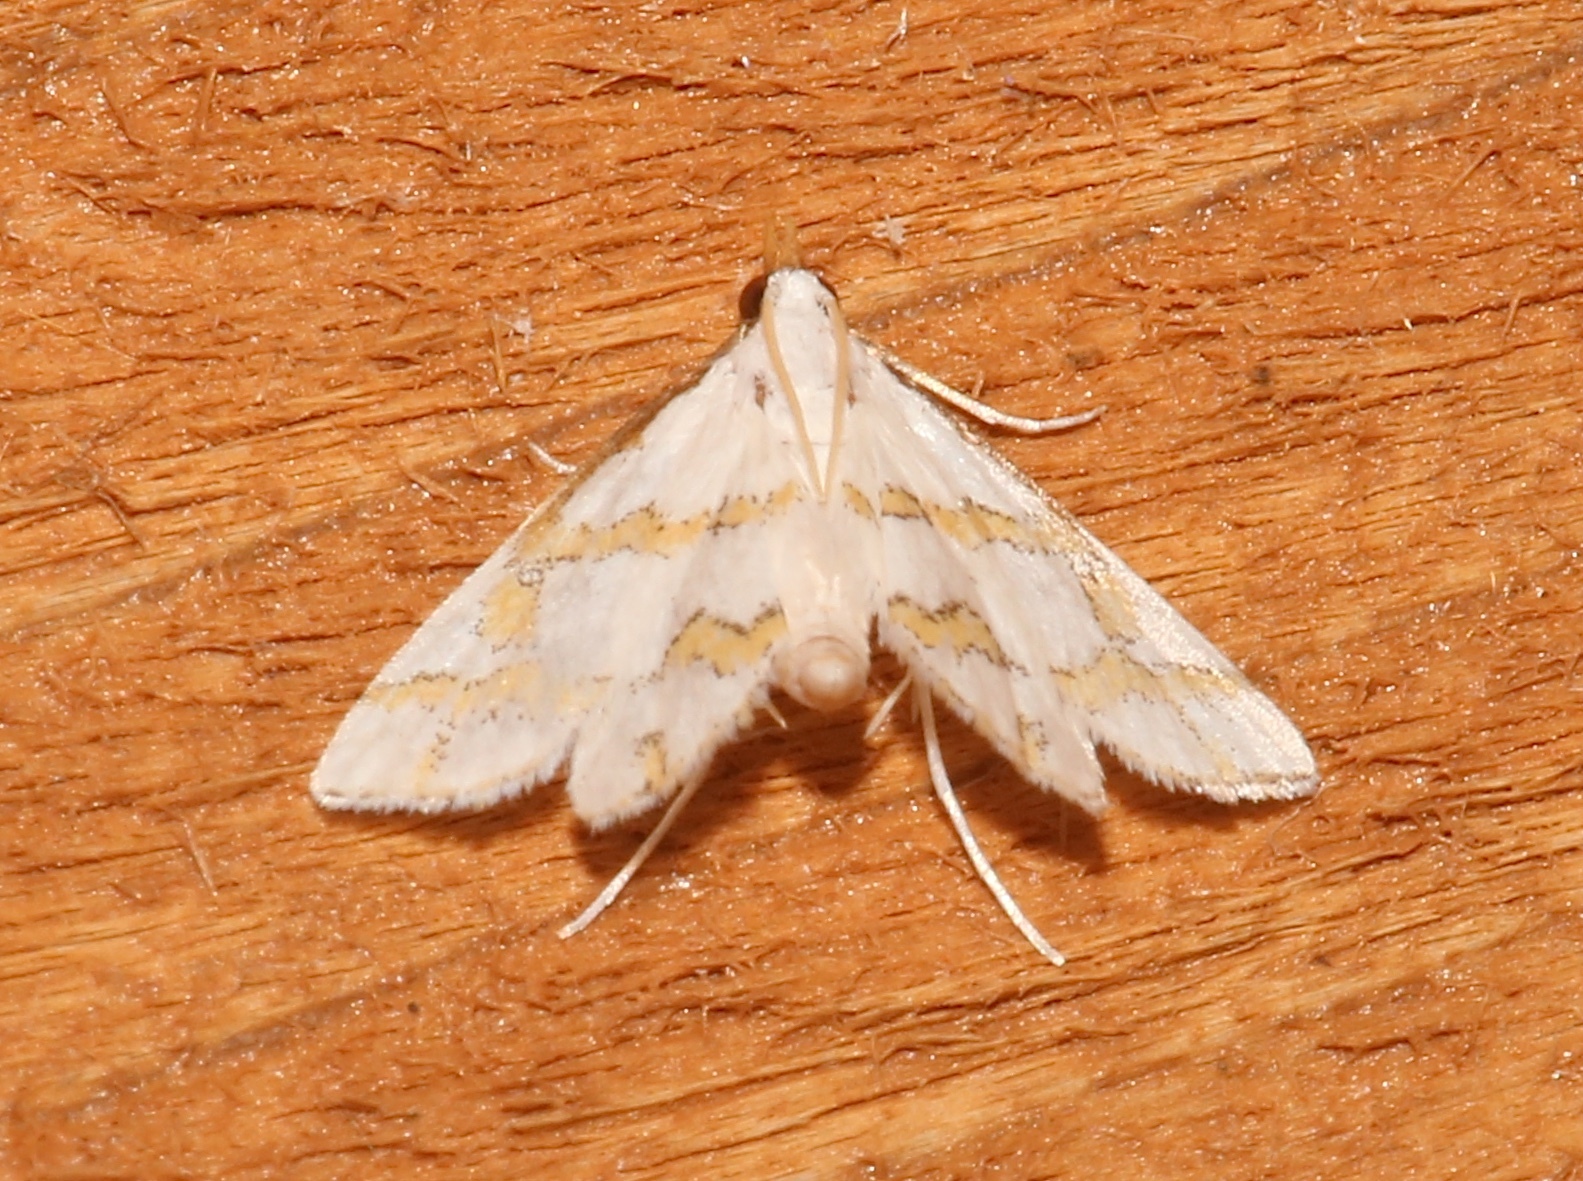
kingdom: Animalia
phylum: Arthropoda
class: Insecta
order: Lepidoptera
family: Crambidae
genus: Leptosteges
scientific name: Leptosteges
